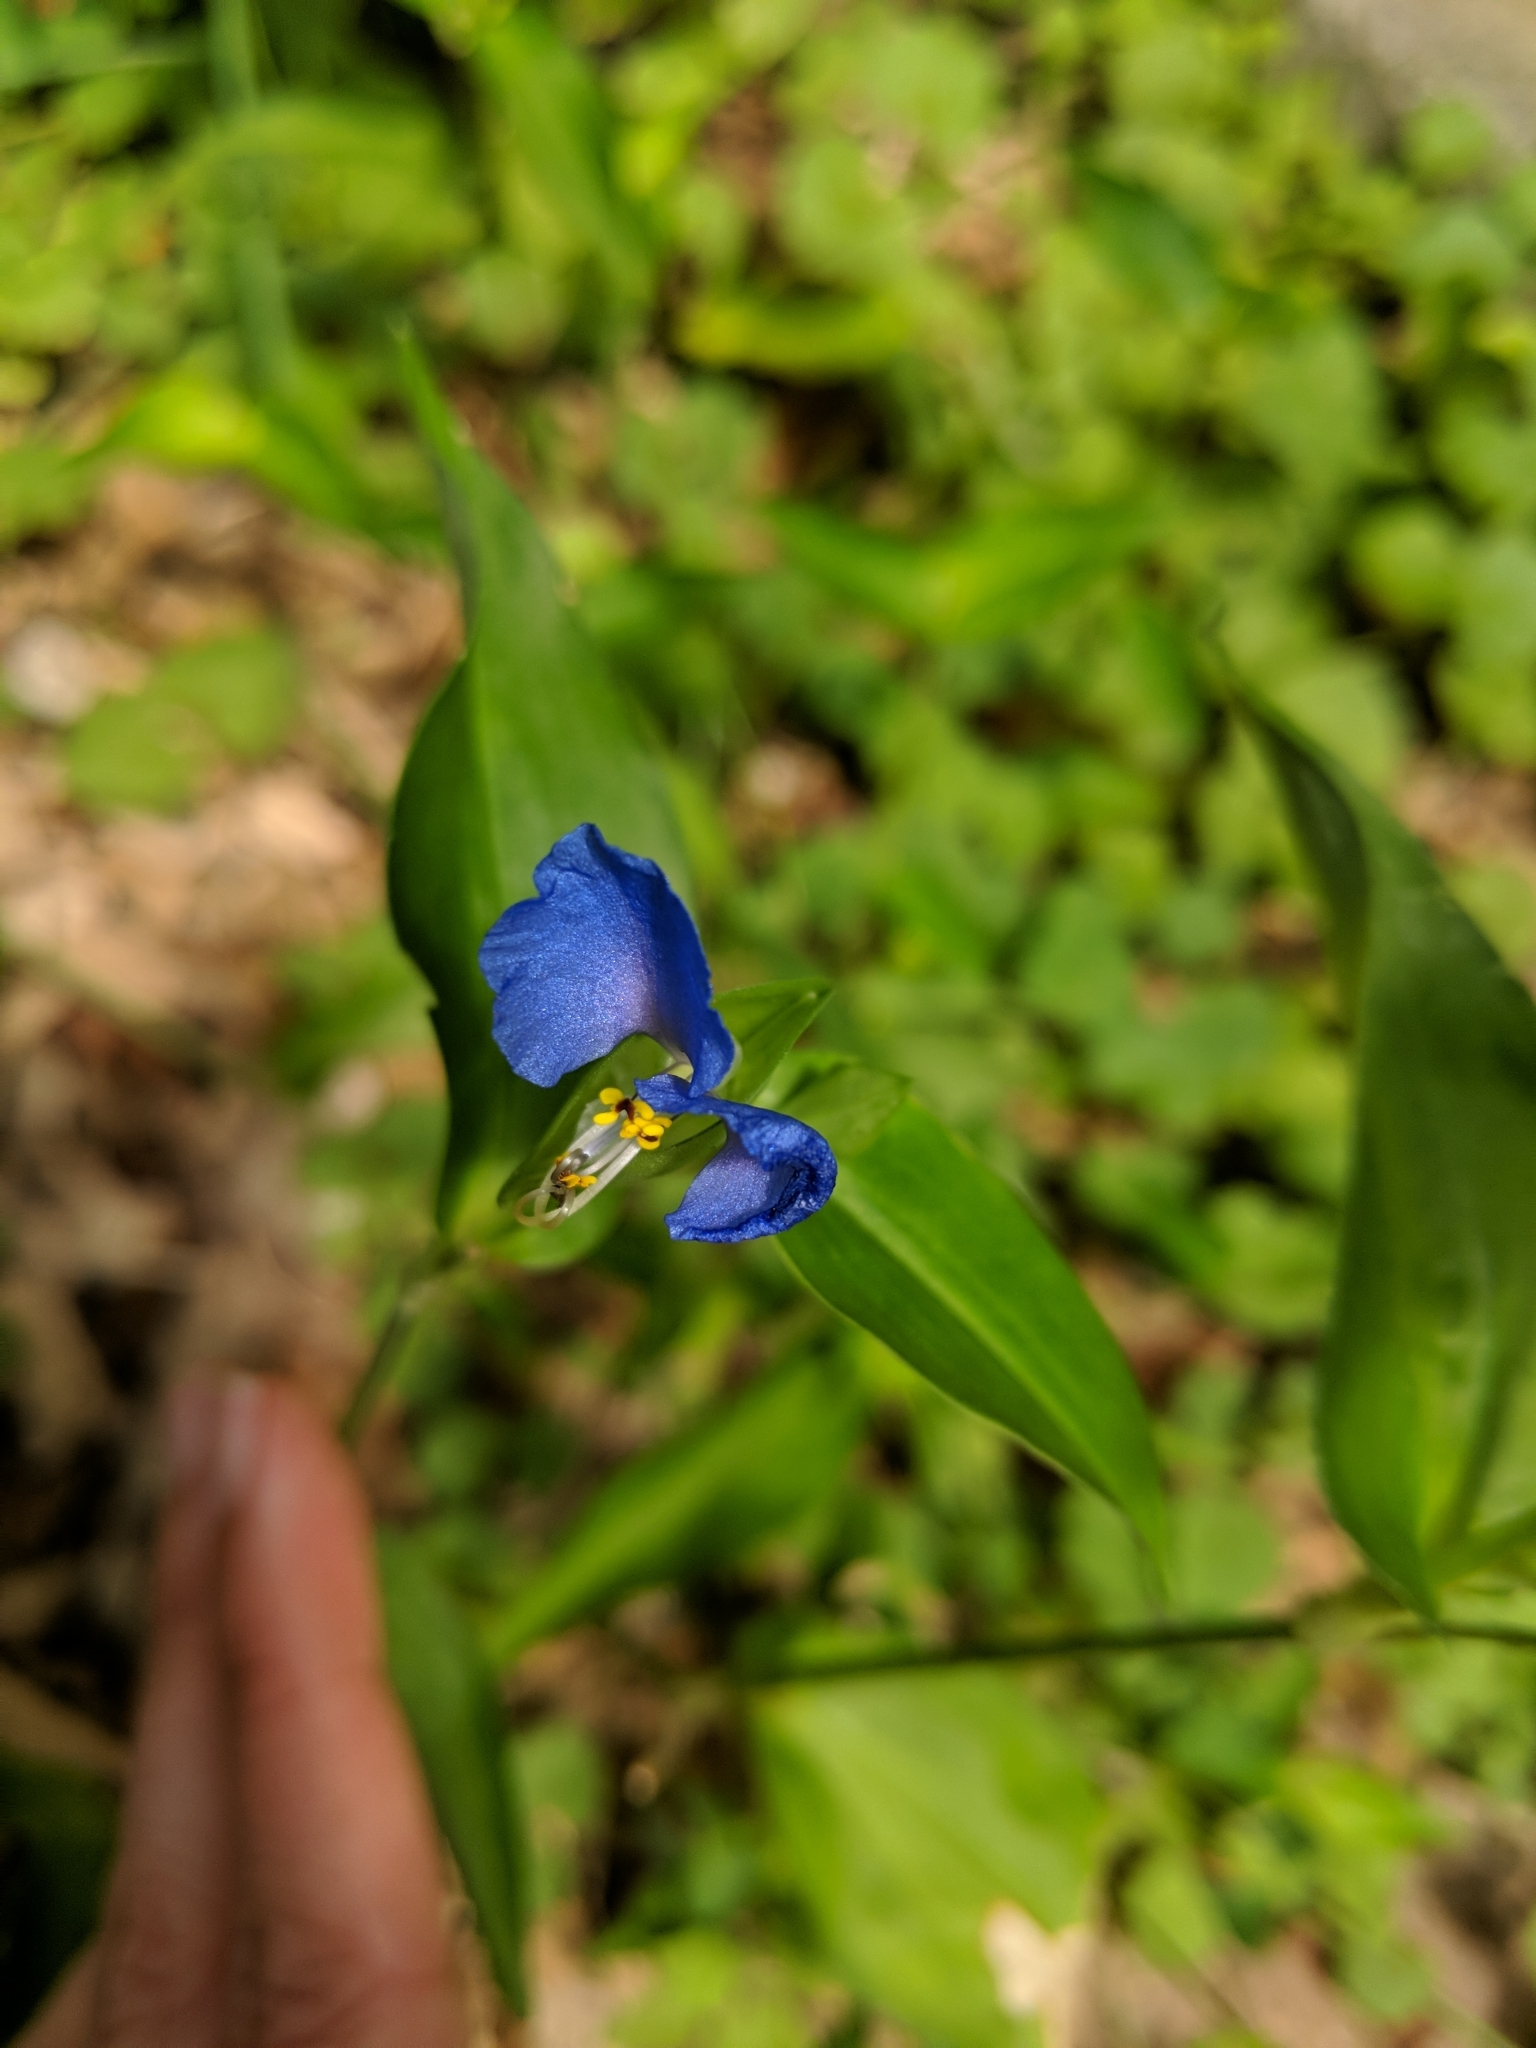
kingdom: Plantae
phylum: Tracheophyta
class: Liliopsida
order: Commelinales
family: Commelinaceae
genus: Commelina
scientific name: Commelina communis
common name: Asiatic dayflower
